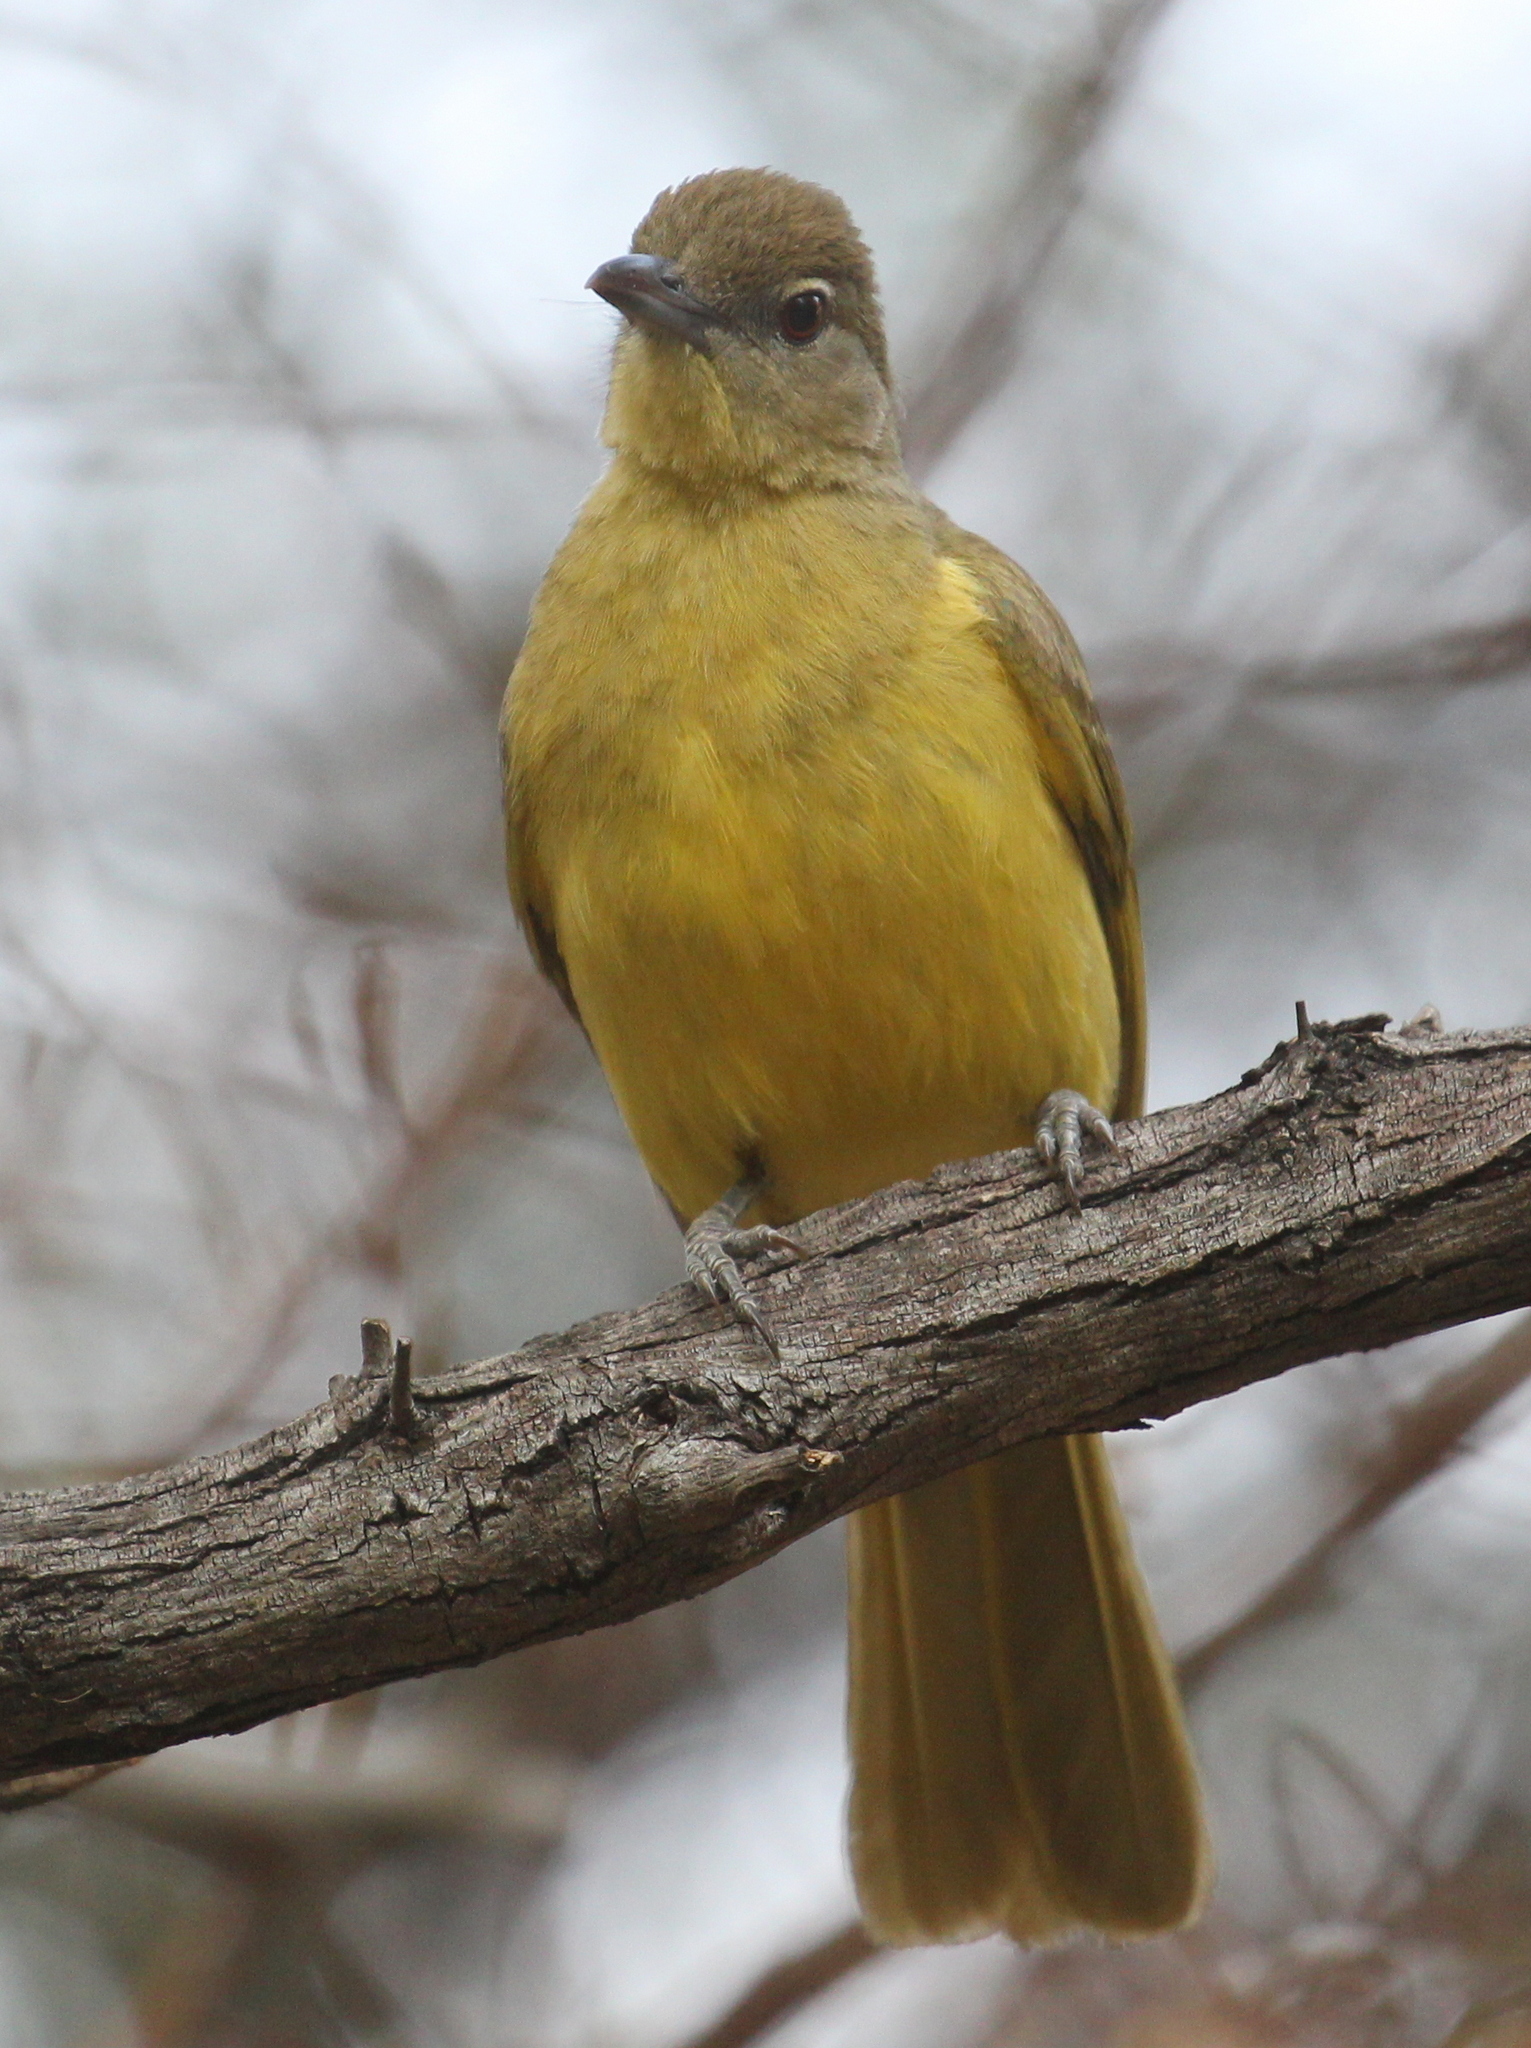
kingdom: Animalia
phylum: Chordata
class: Aves
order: Passeriformes
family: Pycnonotidae
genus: Chlorocichla
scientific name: Chlorocichla flaviventris
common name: Yellow-bellied greenbul
